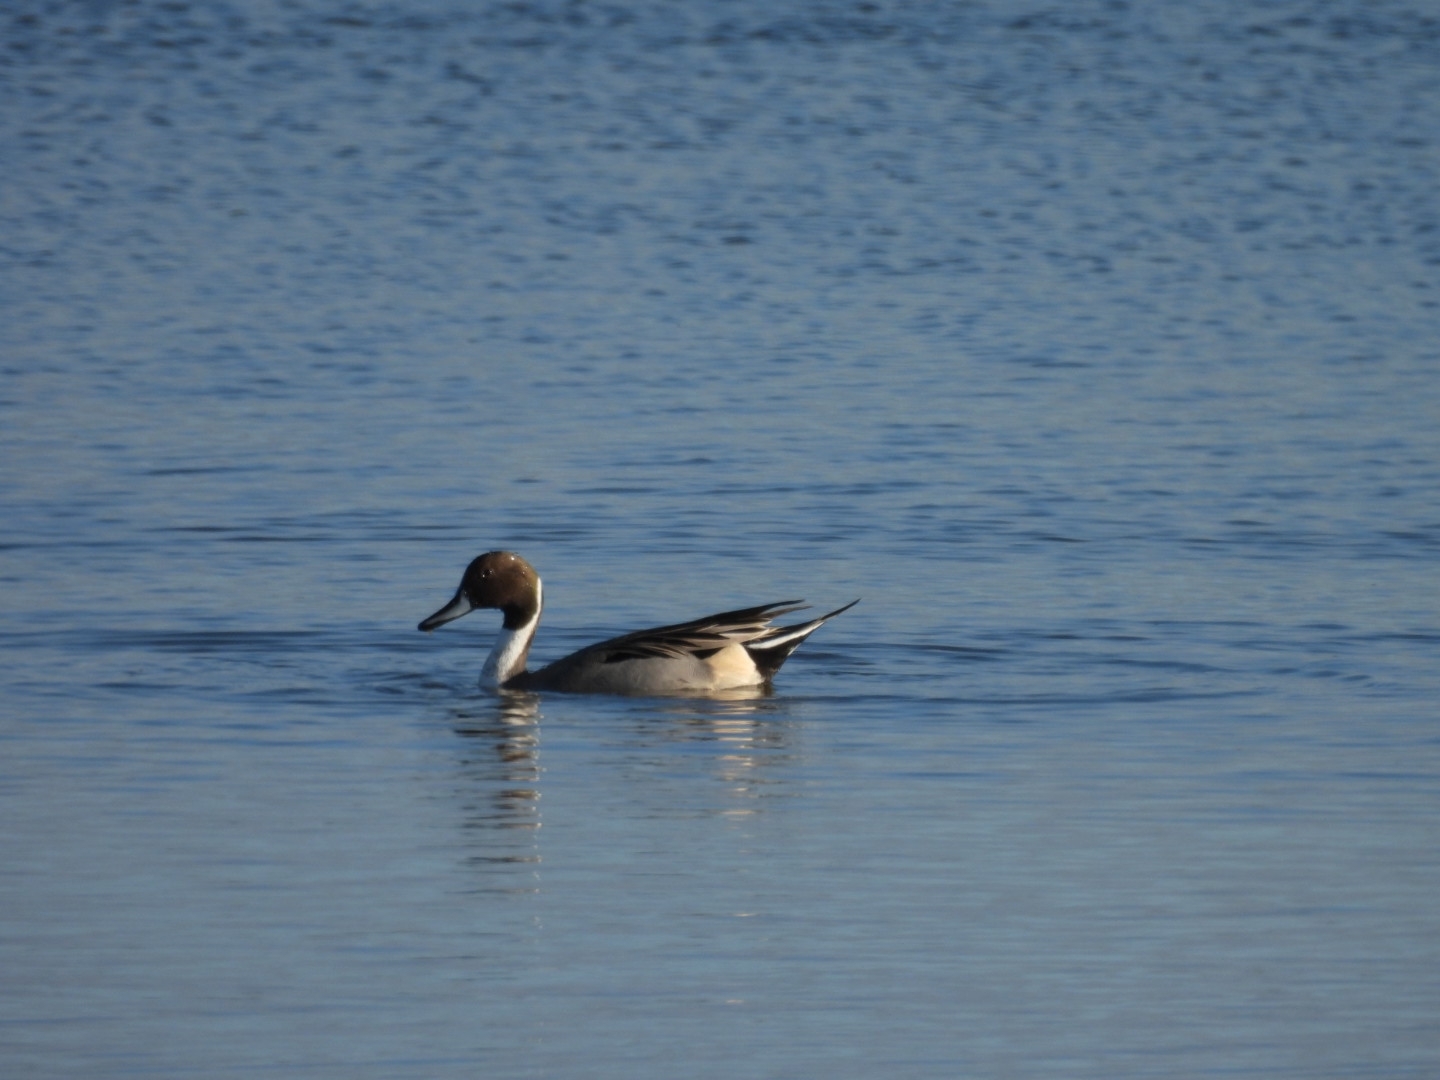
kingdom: Animalia
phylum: Chordata
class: Aves
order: Anseriformes
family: Anatidae
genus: Anas
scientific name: Anas acuta
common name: Northern pintail
